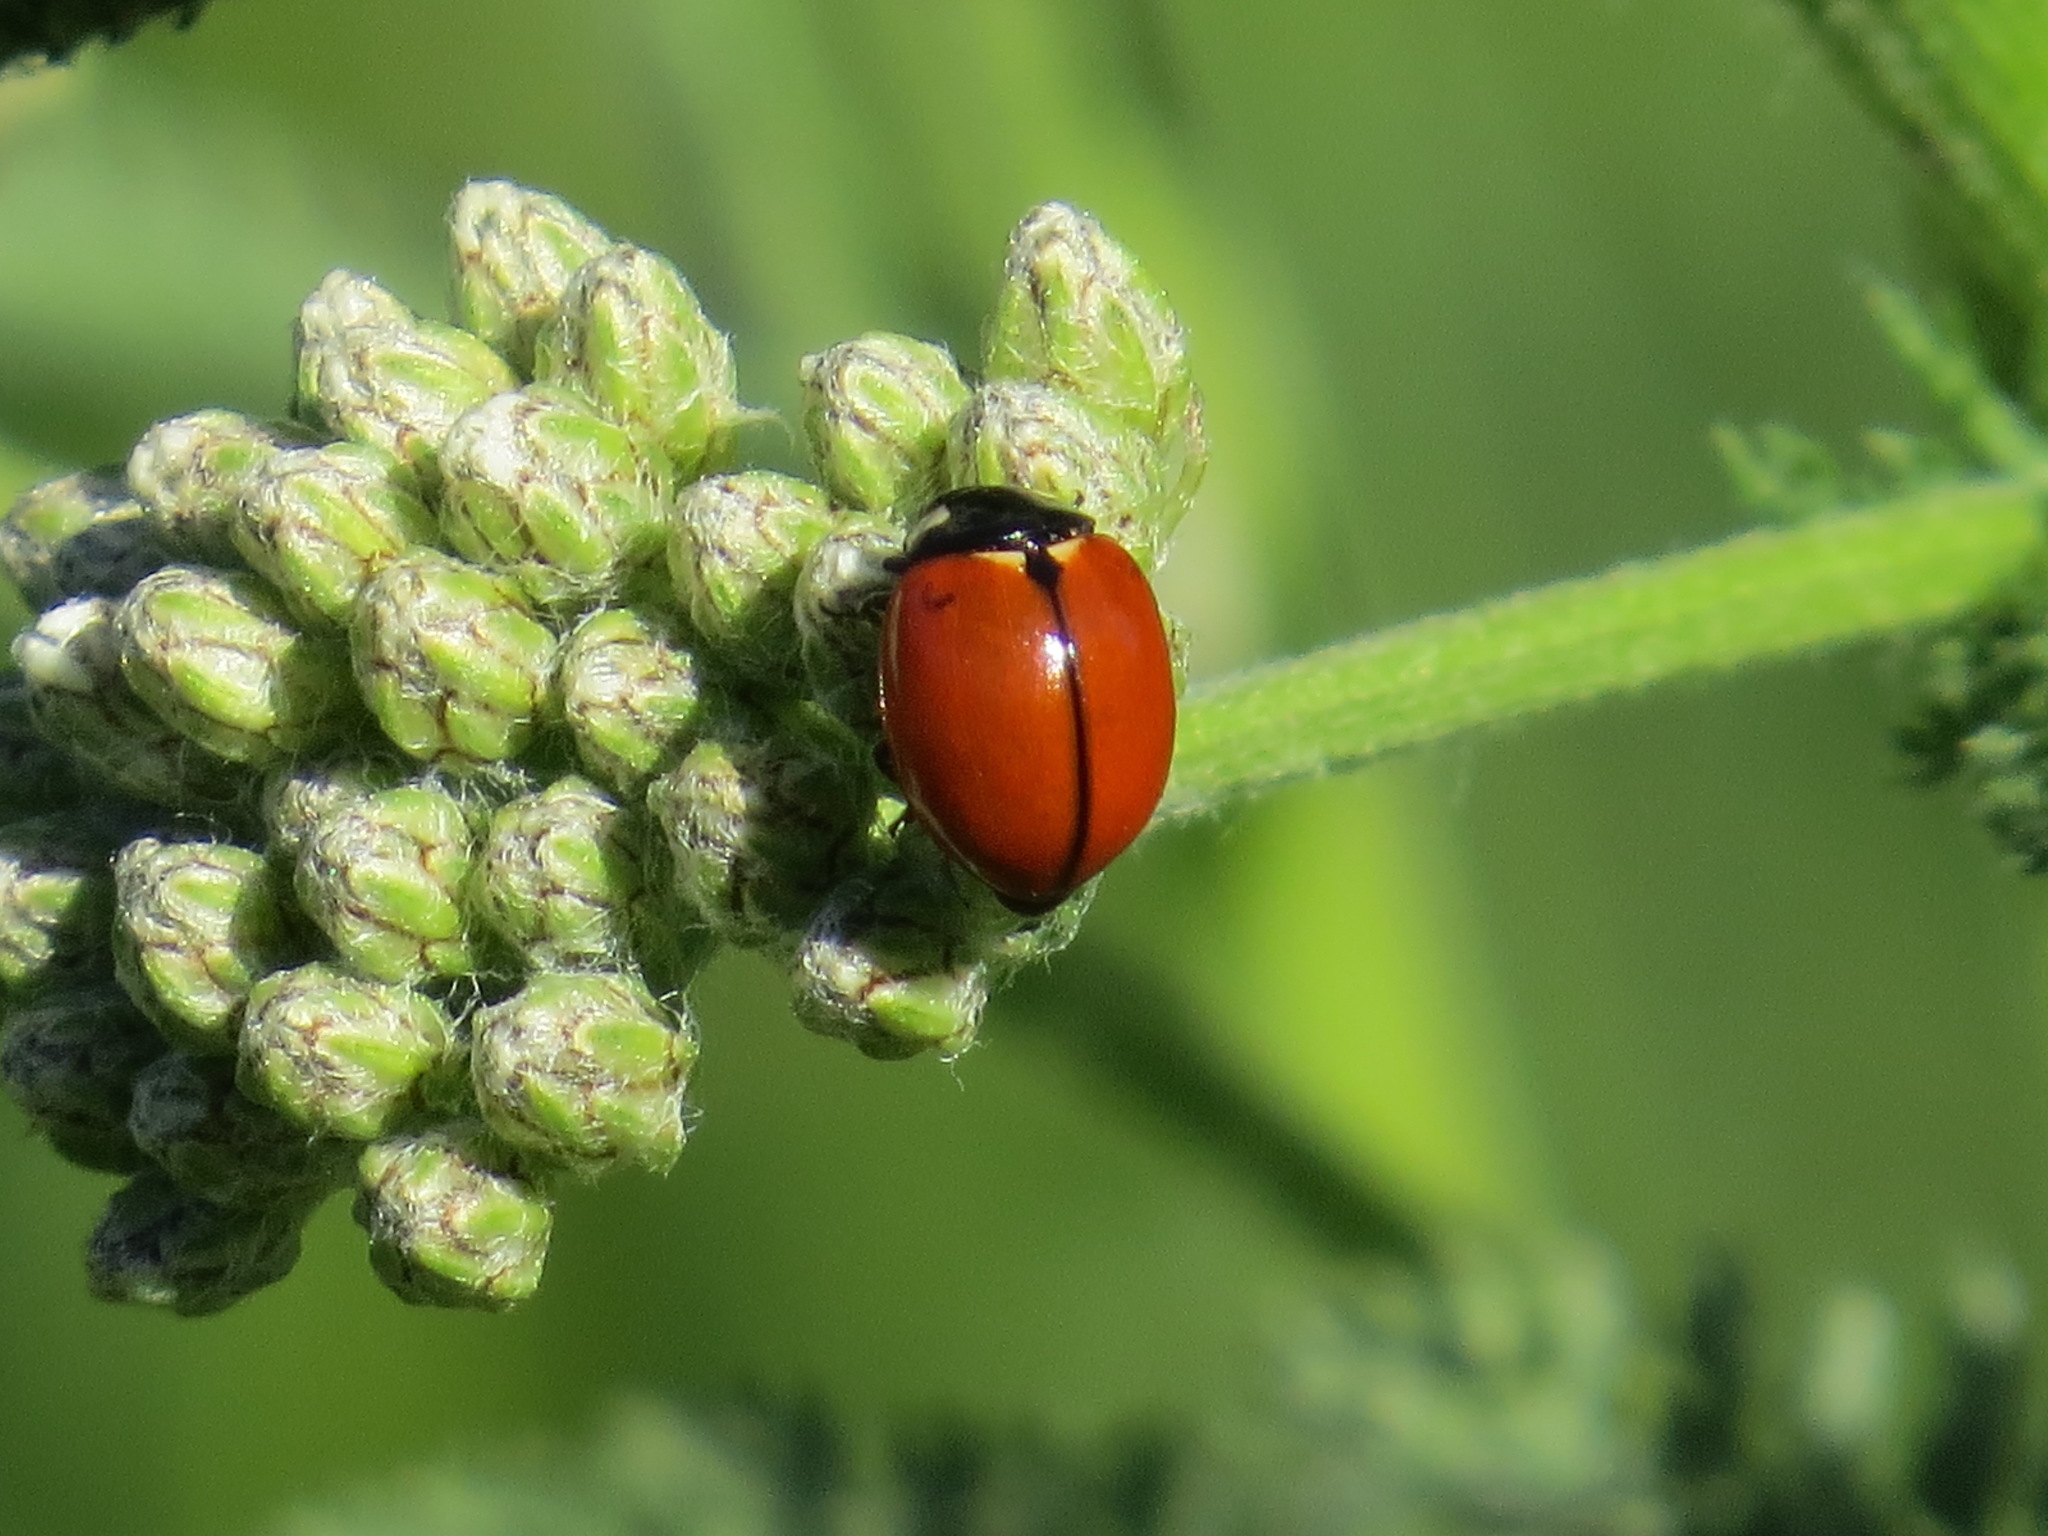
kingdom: Animalia
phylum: Arthropoda
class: Insecta
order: Coleoptera
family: Coccinellidae
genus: Coccinella
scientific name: Coccinella californica
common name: Lady beetle
